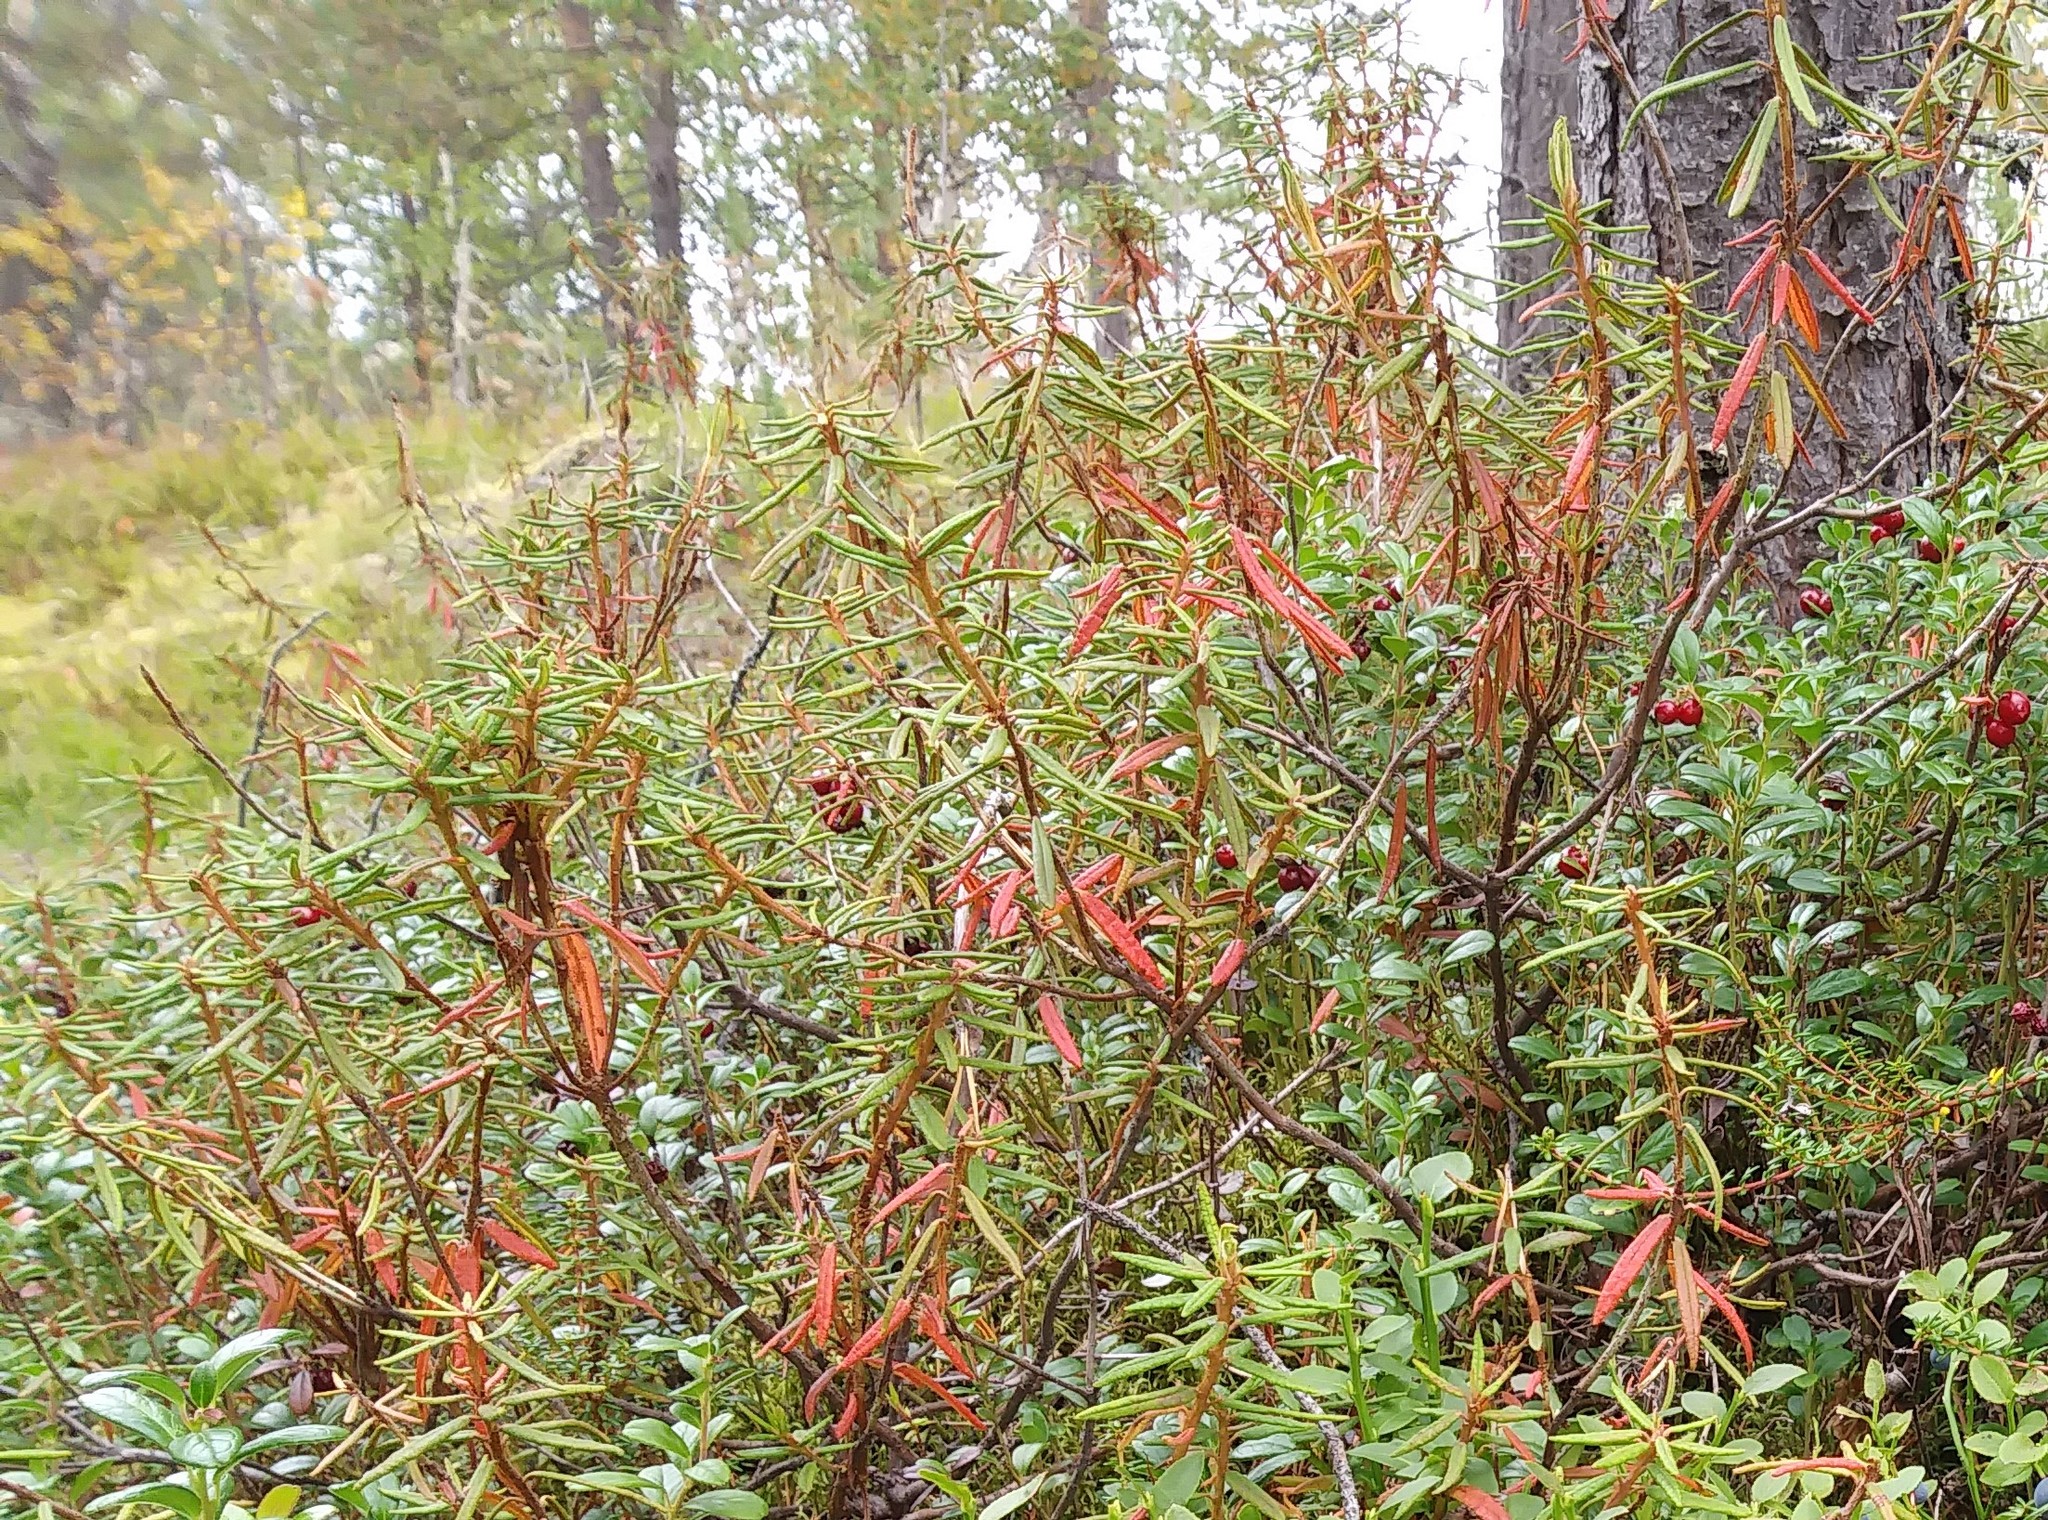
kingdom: Plantae
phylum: Tracheophyta
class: Magnoliopsida
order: Ericales
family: Ericaceae
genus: Rhododendron
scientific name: Rhododendron tomentosum
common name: Marsh labrador tea
